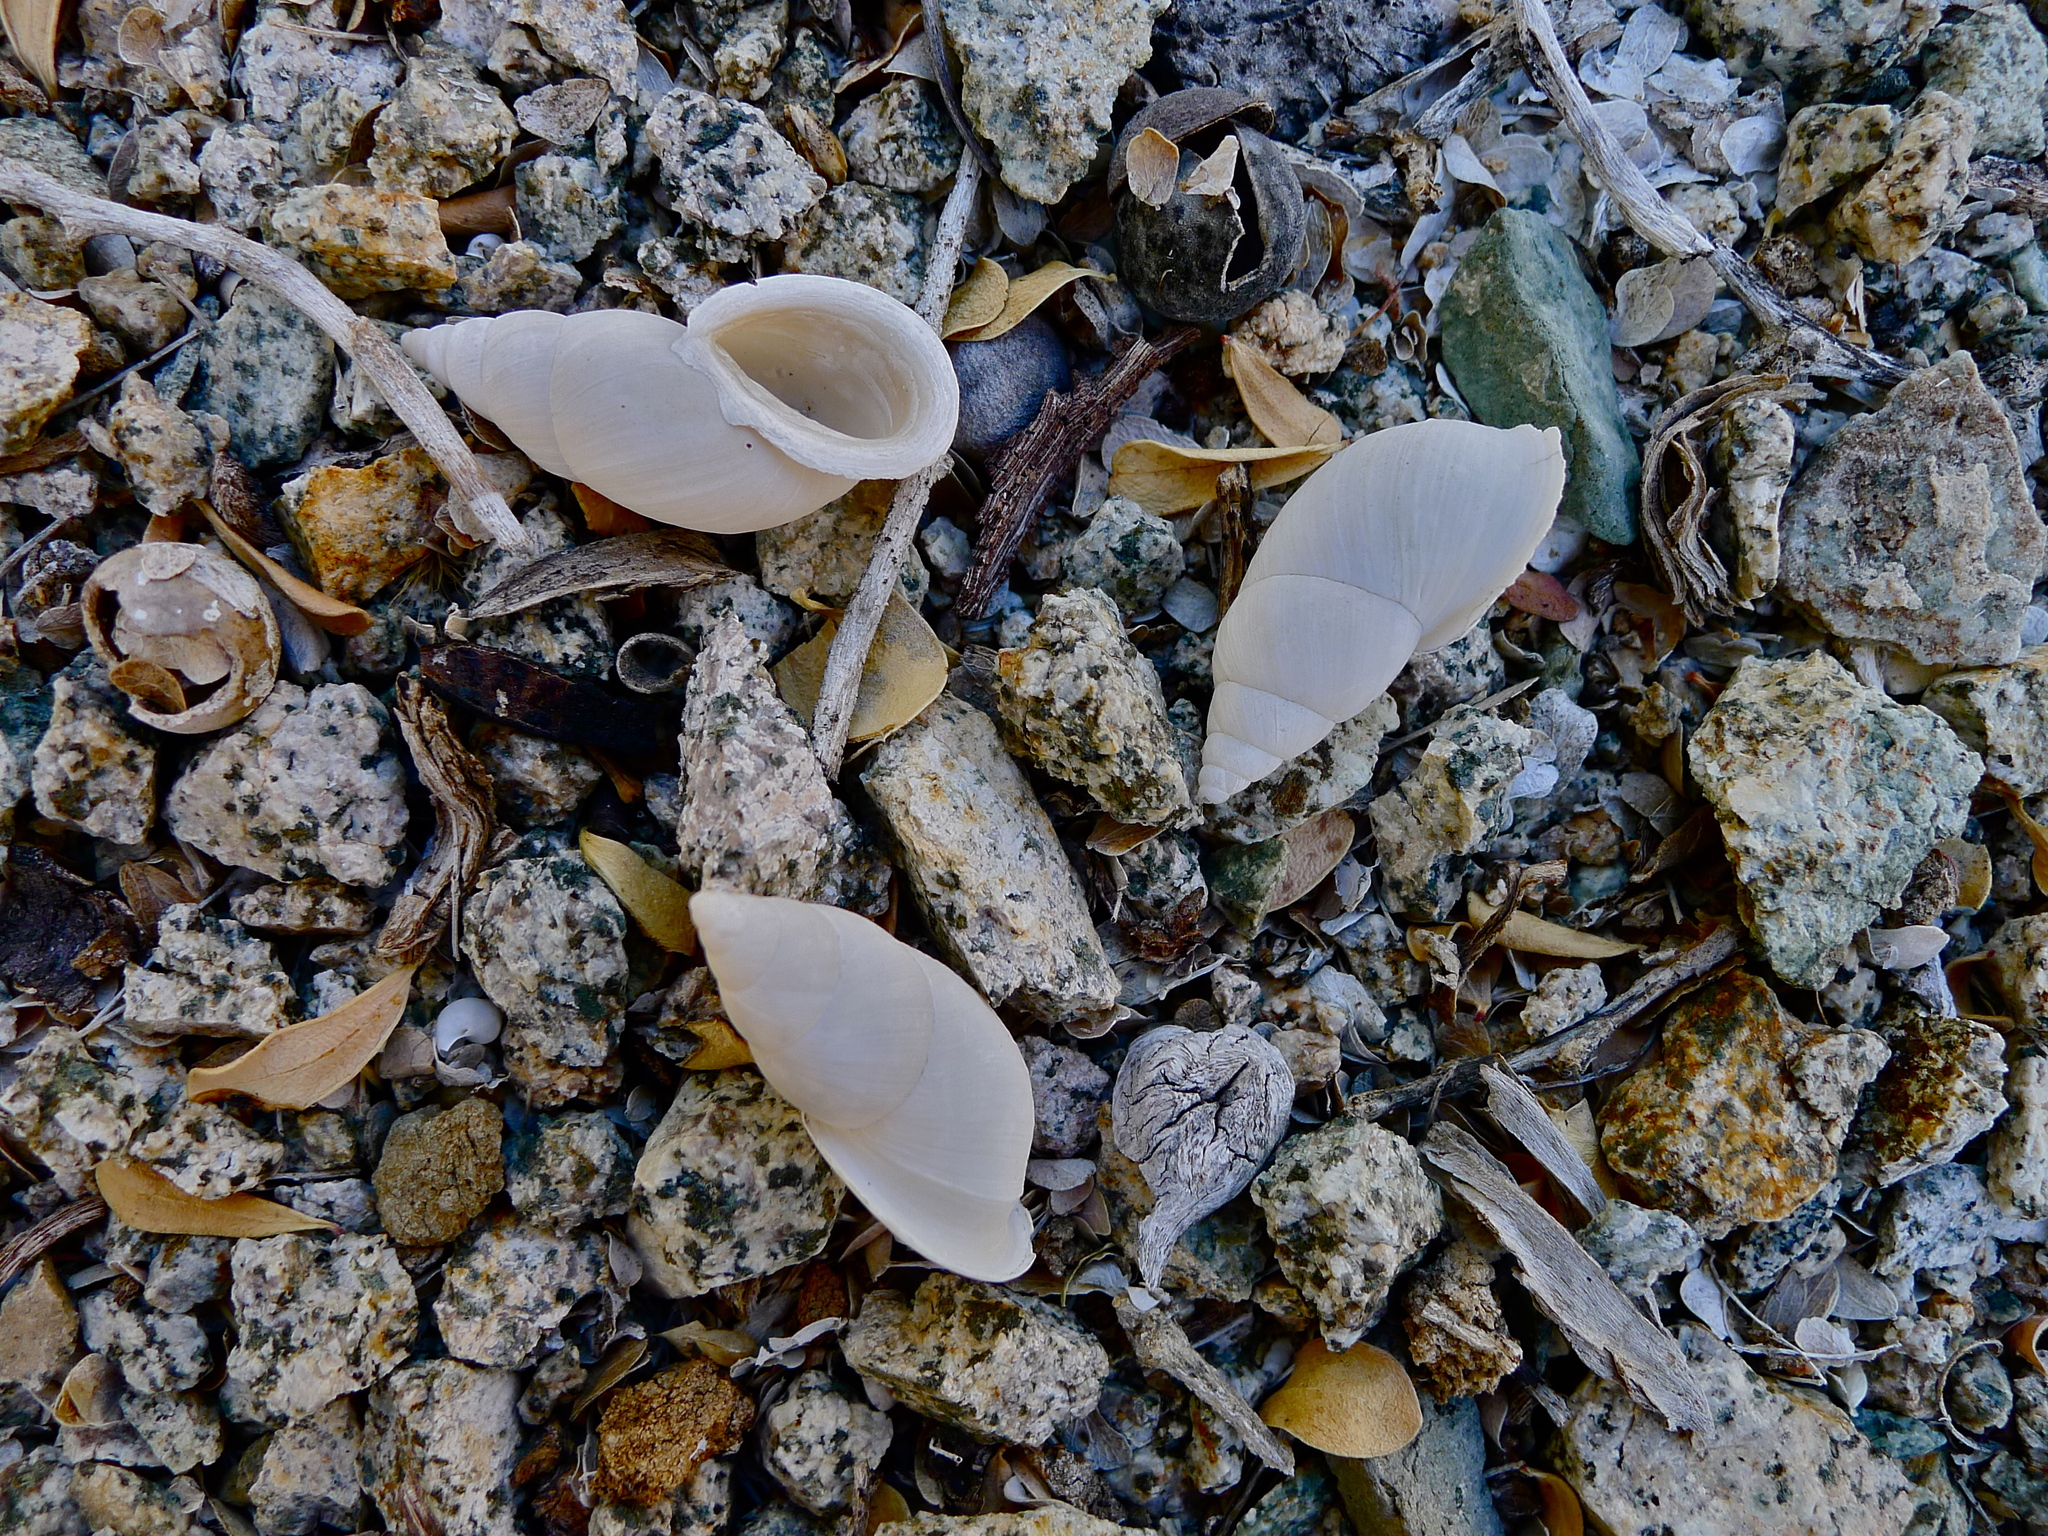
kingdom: Animalia
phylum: Mollusca
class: Gastropoda
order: Stylommatophora
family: Bulimulidae
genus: Naesiotus
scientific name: Naesiotus dentifer
